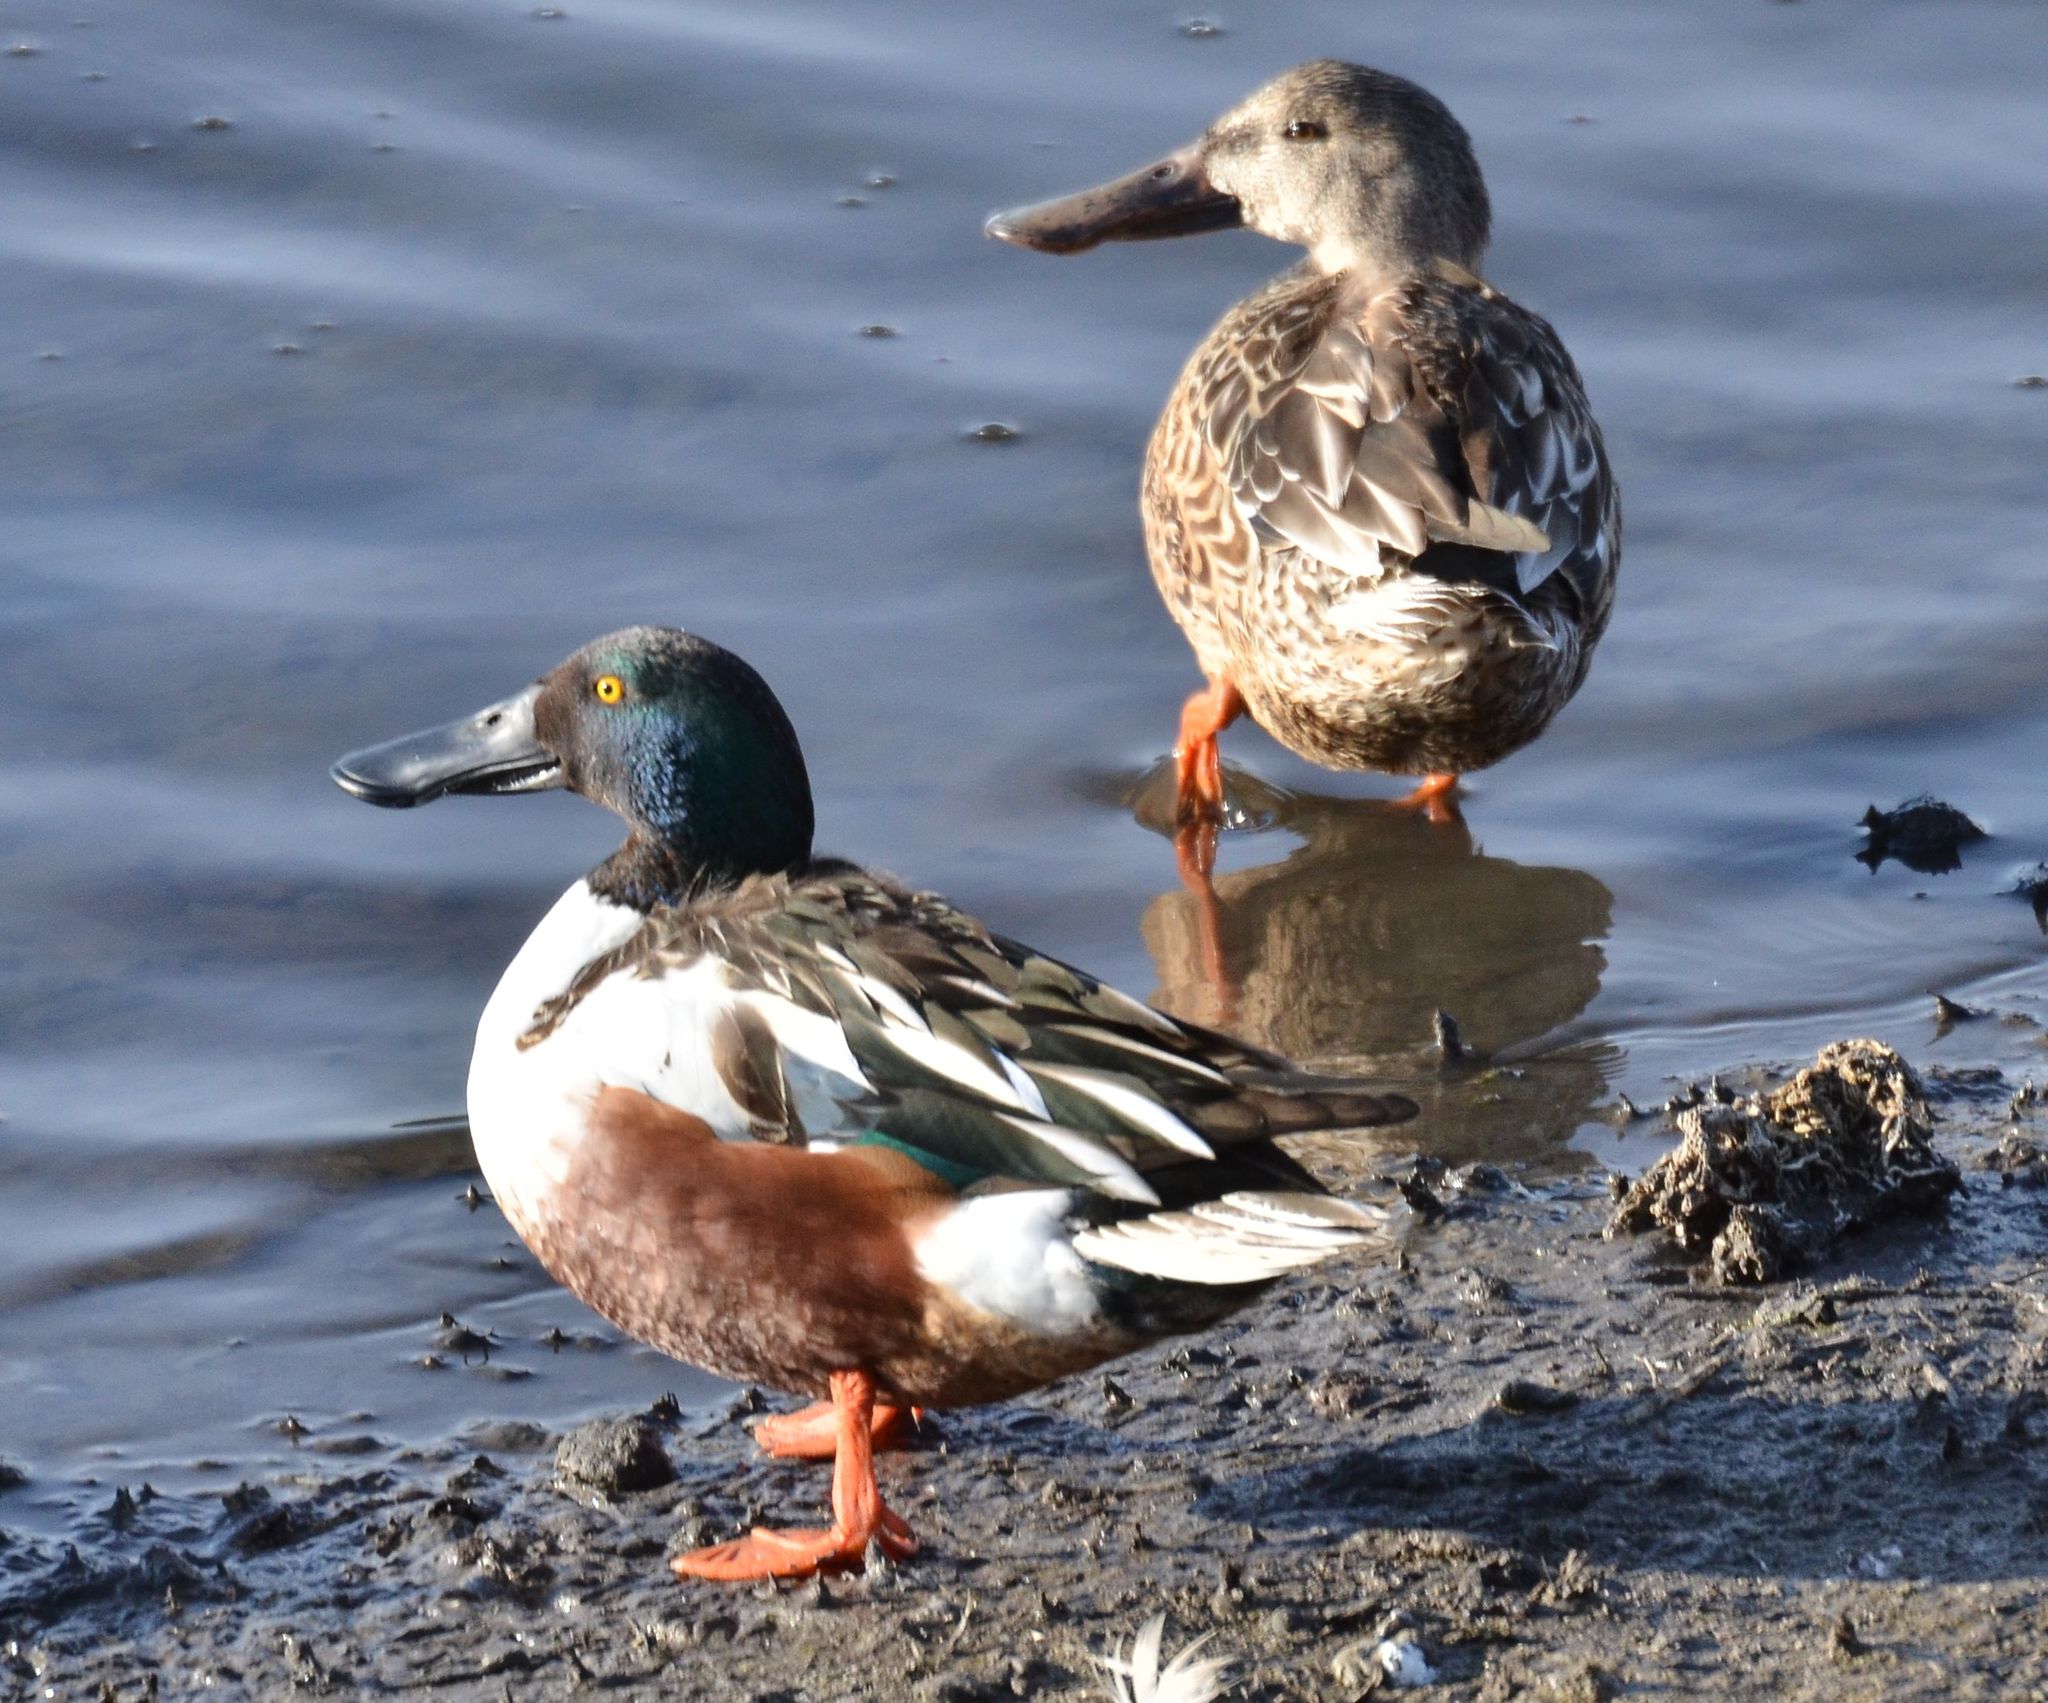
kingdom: Animalia
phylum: Chordata
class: Aves
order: Anseriformes
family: Anatidae
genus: Spatula
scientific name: Spatula clypeata
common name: Northern shoveler
